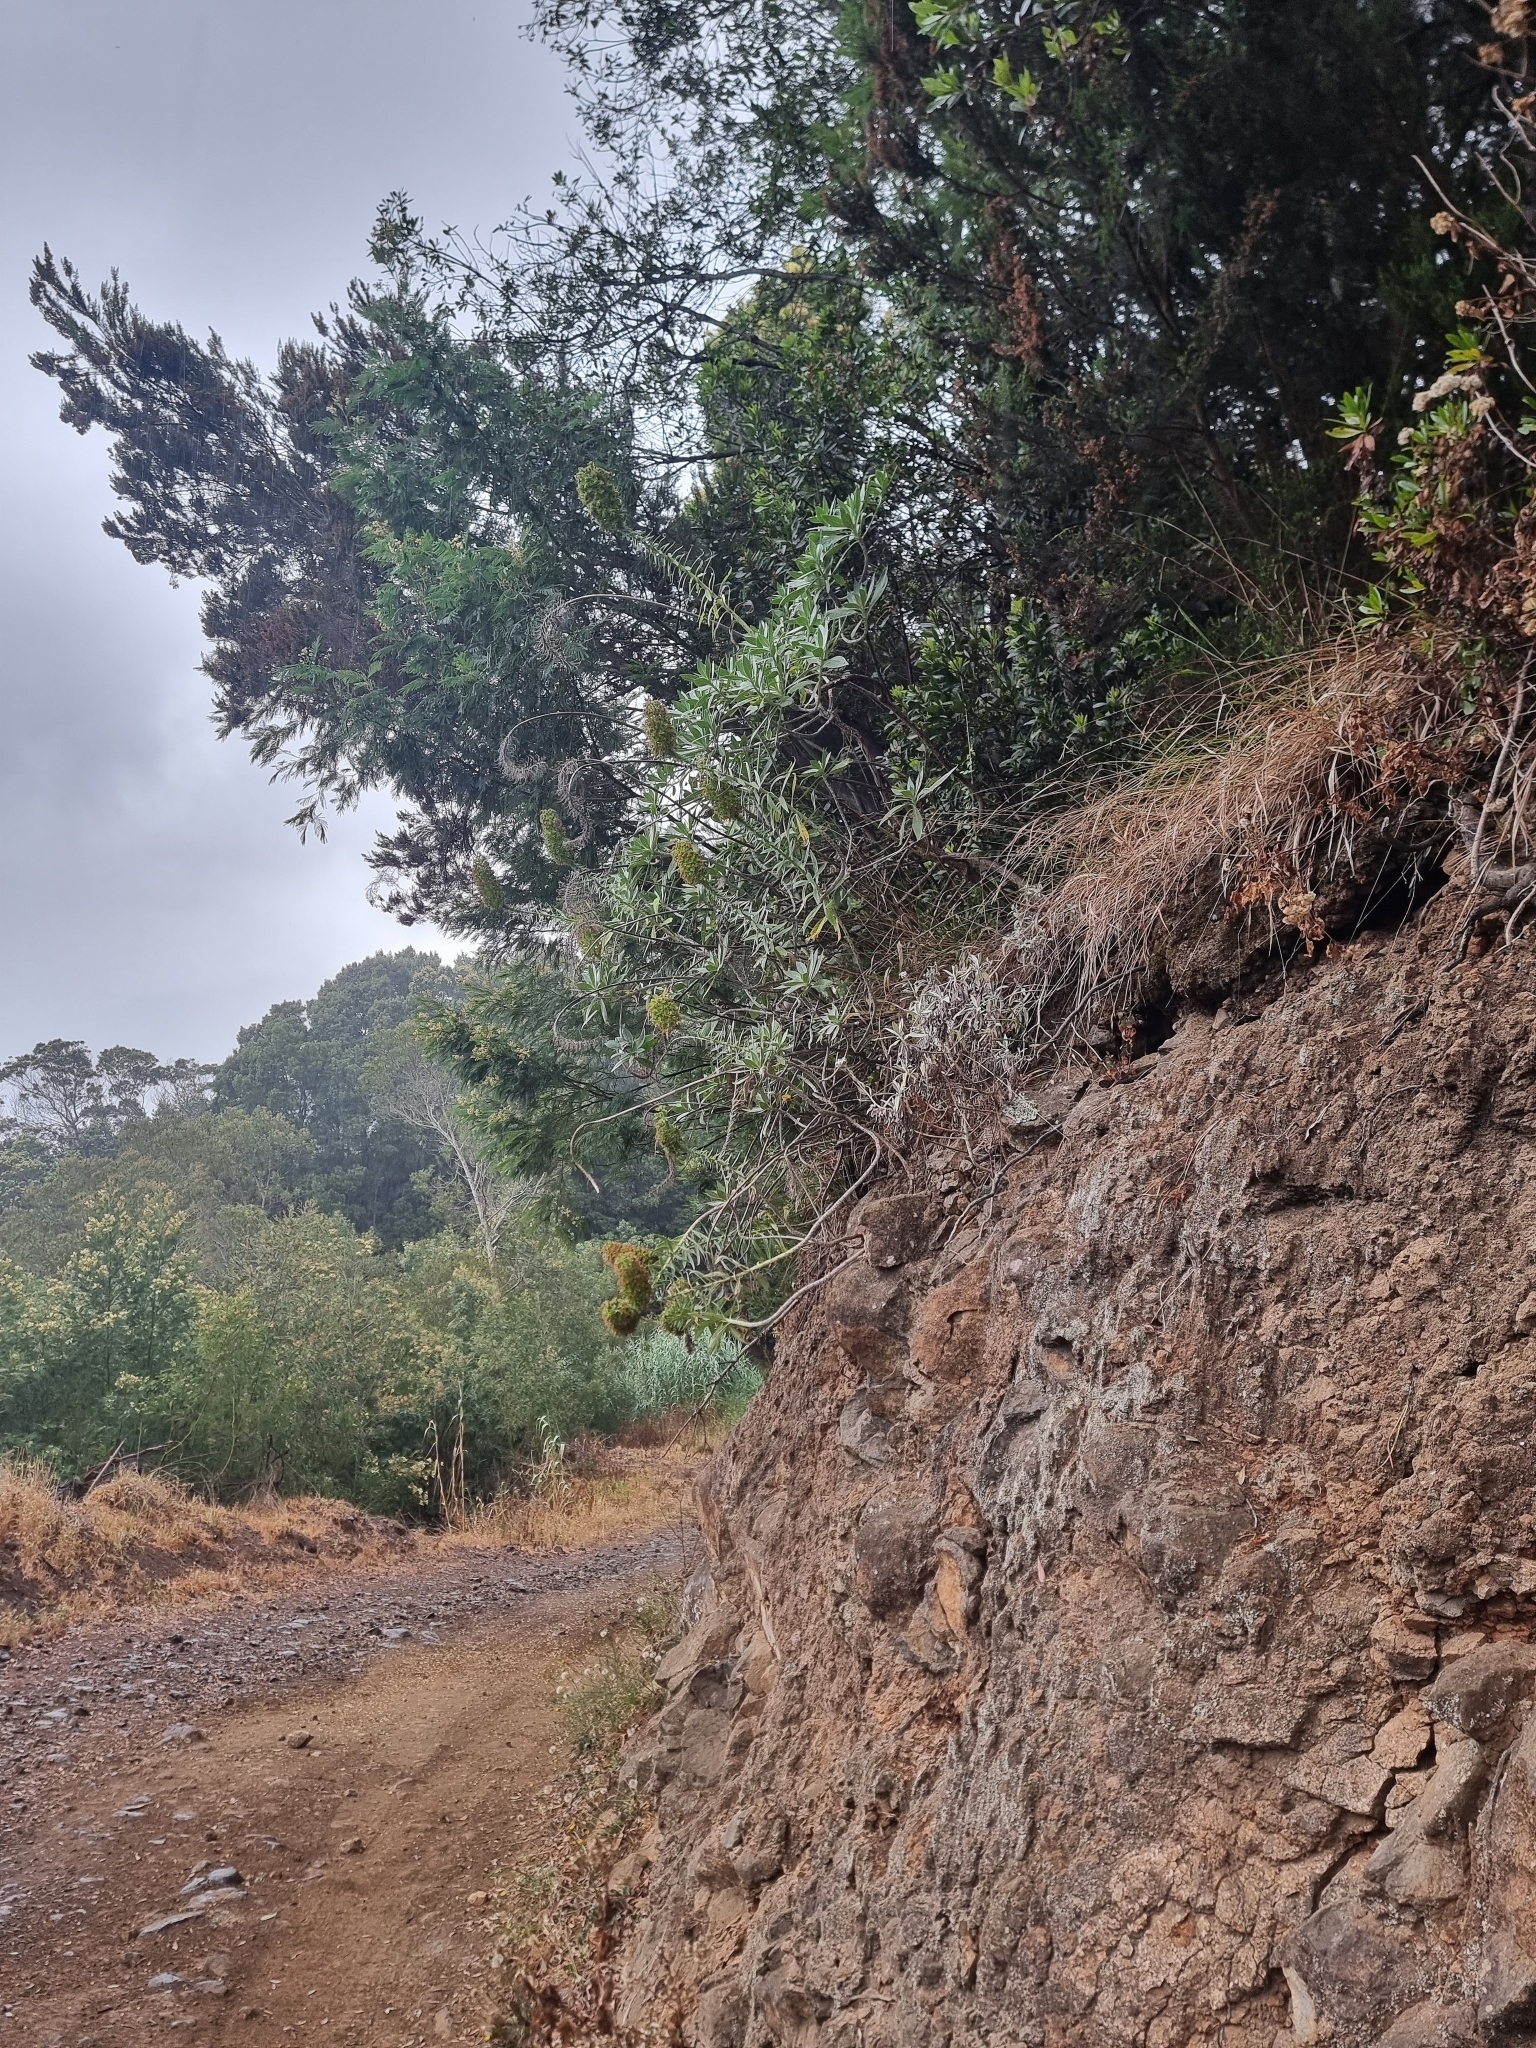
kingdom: Plantae
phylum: Tracheophyta
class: Magnoliopsida
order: Boraginales
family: Boraginaceae
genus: Echium
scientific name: Echium nervosum
